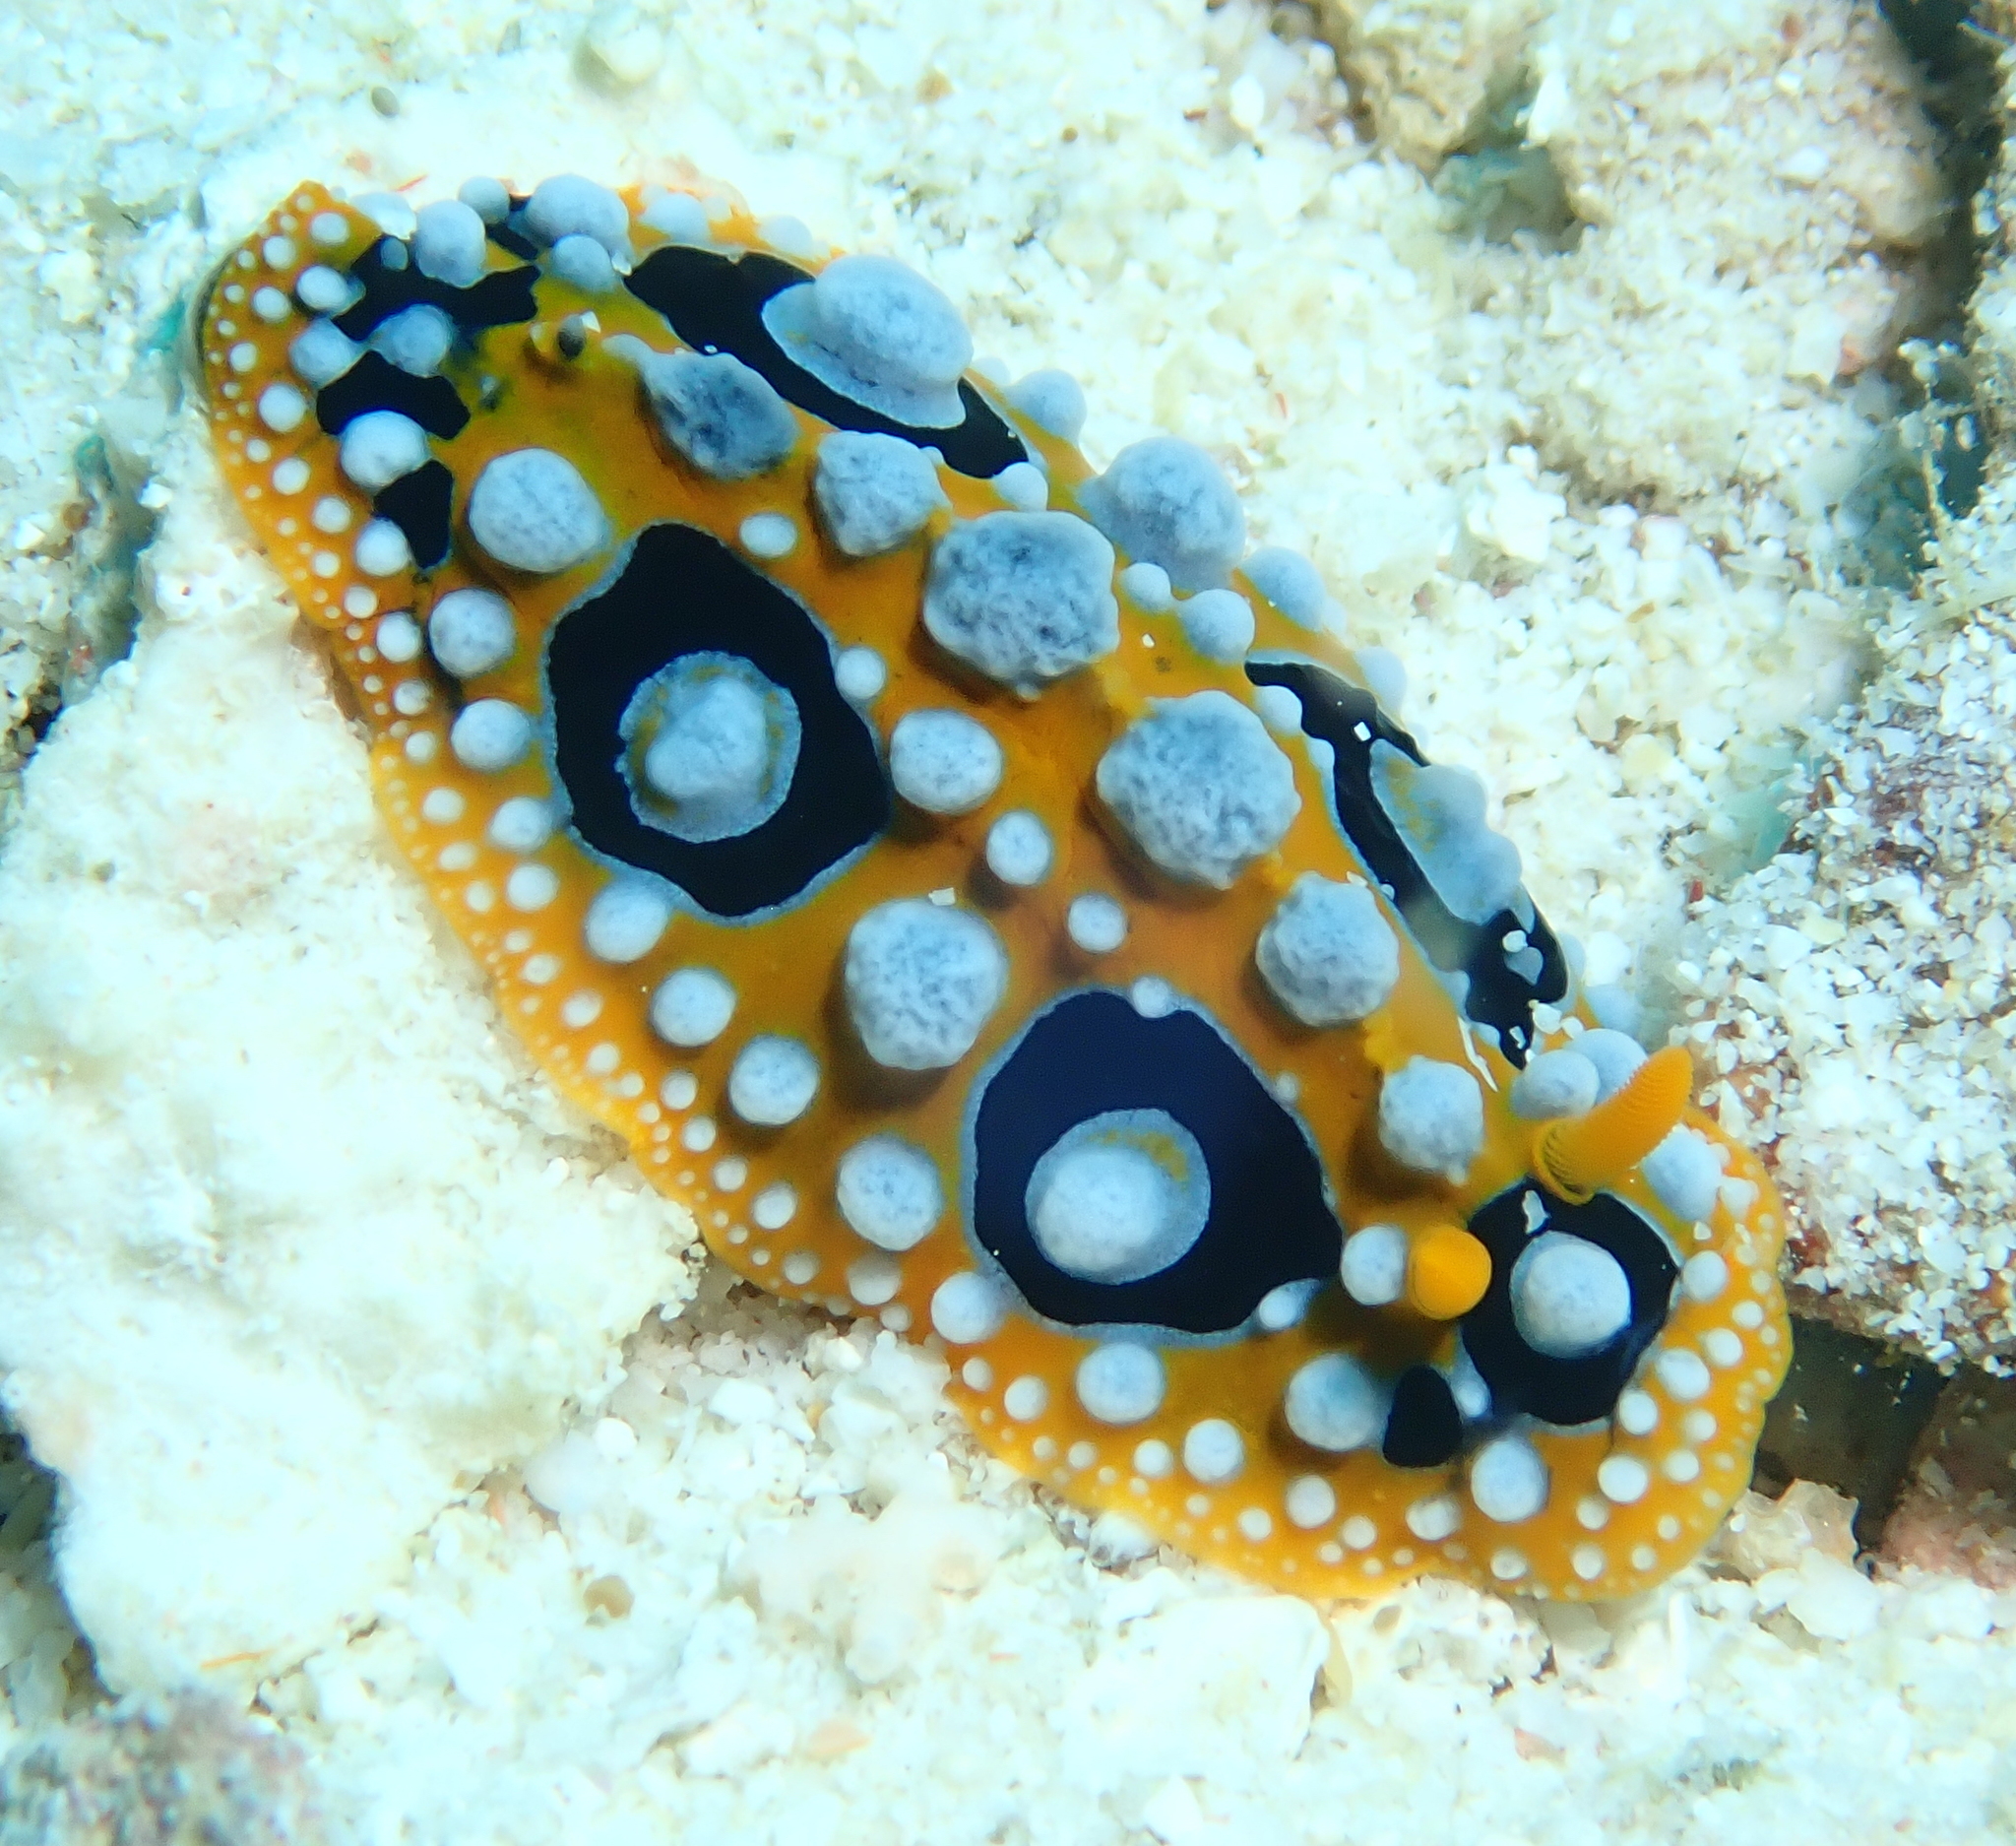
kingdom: Animalia
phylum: Mollusca
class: Gastropoda
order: Nudibranchia
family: Phyllidiidae
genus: Phyllidia
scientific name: Phyllidia ocellata
